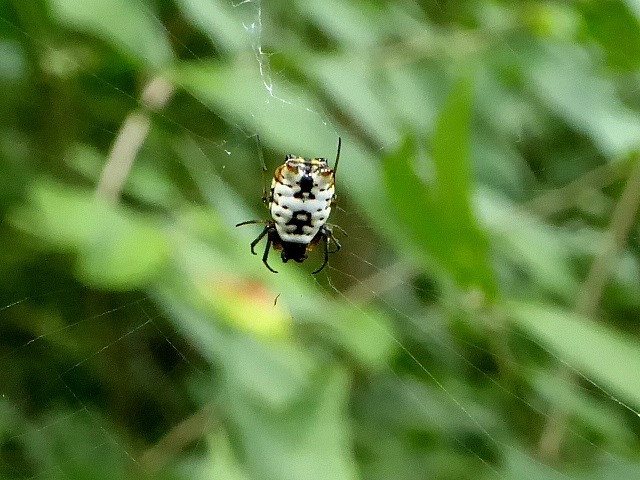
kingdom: Animalia
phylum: Arthropoda
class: Arachnida
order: Araneae
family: Araneidae
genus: Micrathena
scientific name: Micrathena mitrata
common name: Orb weavers
